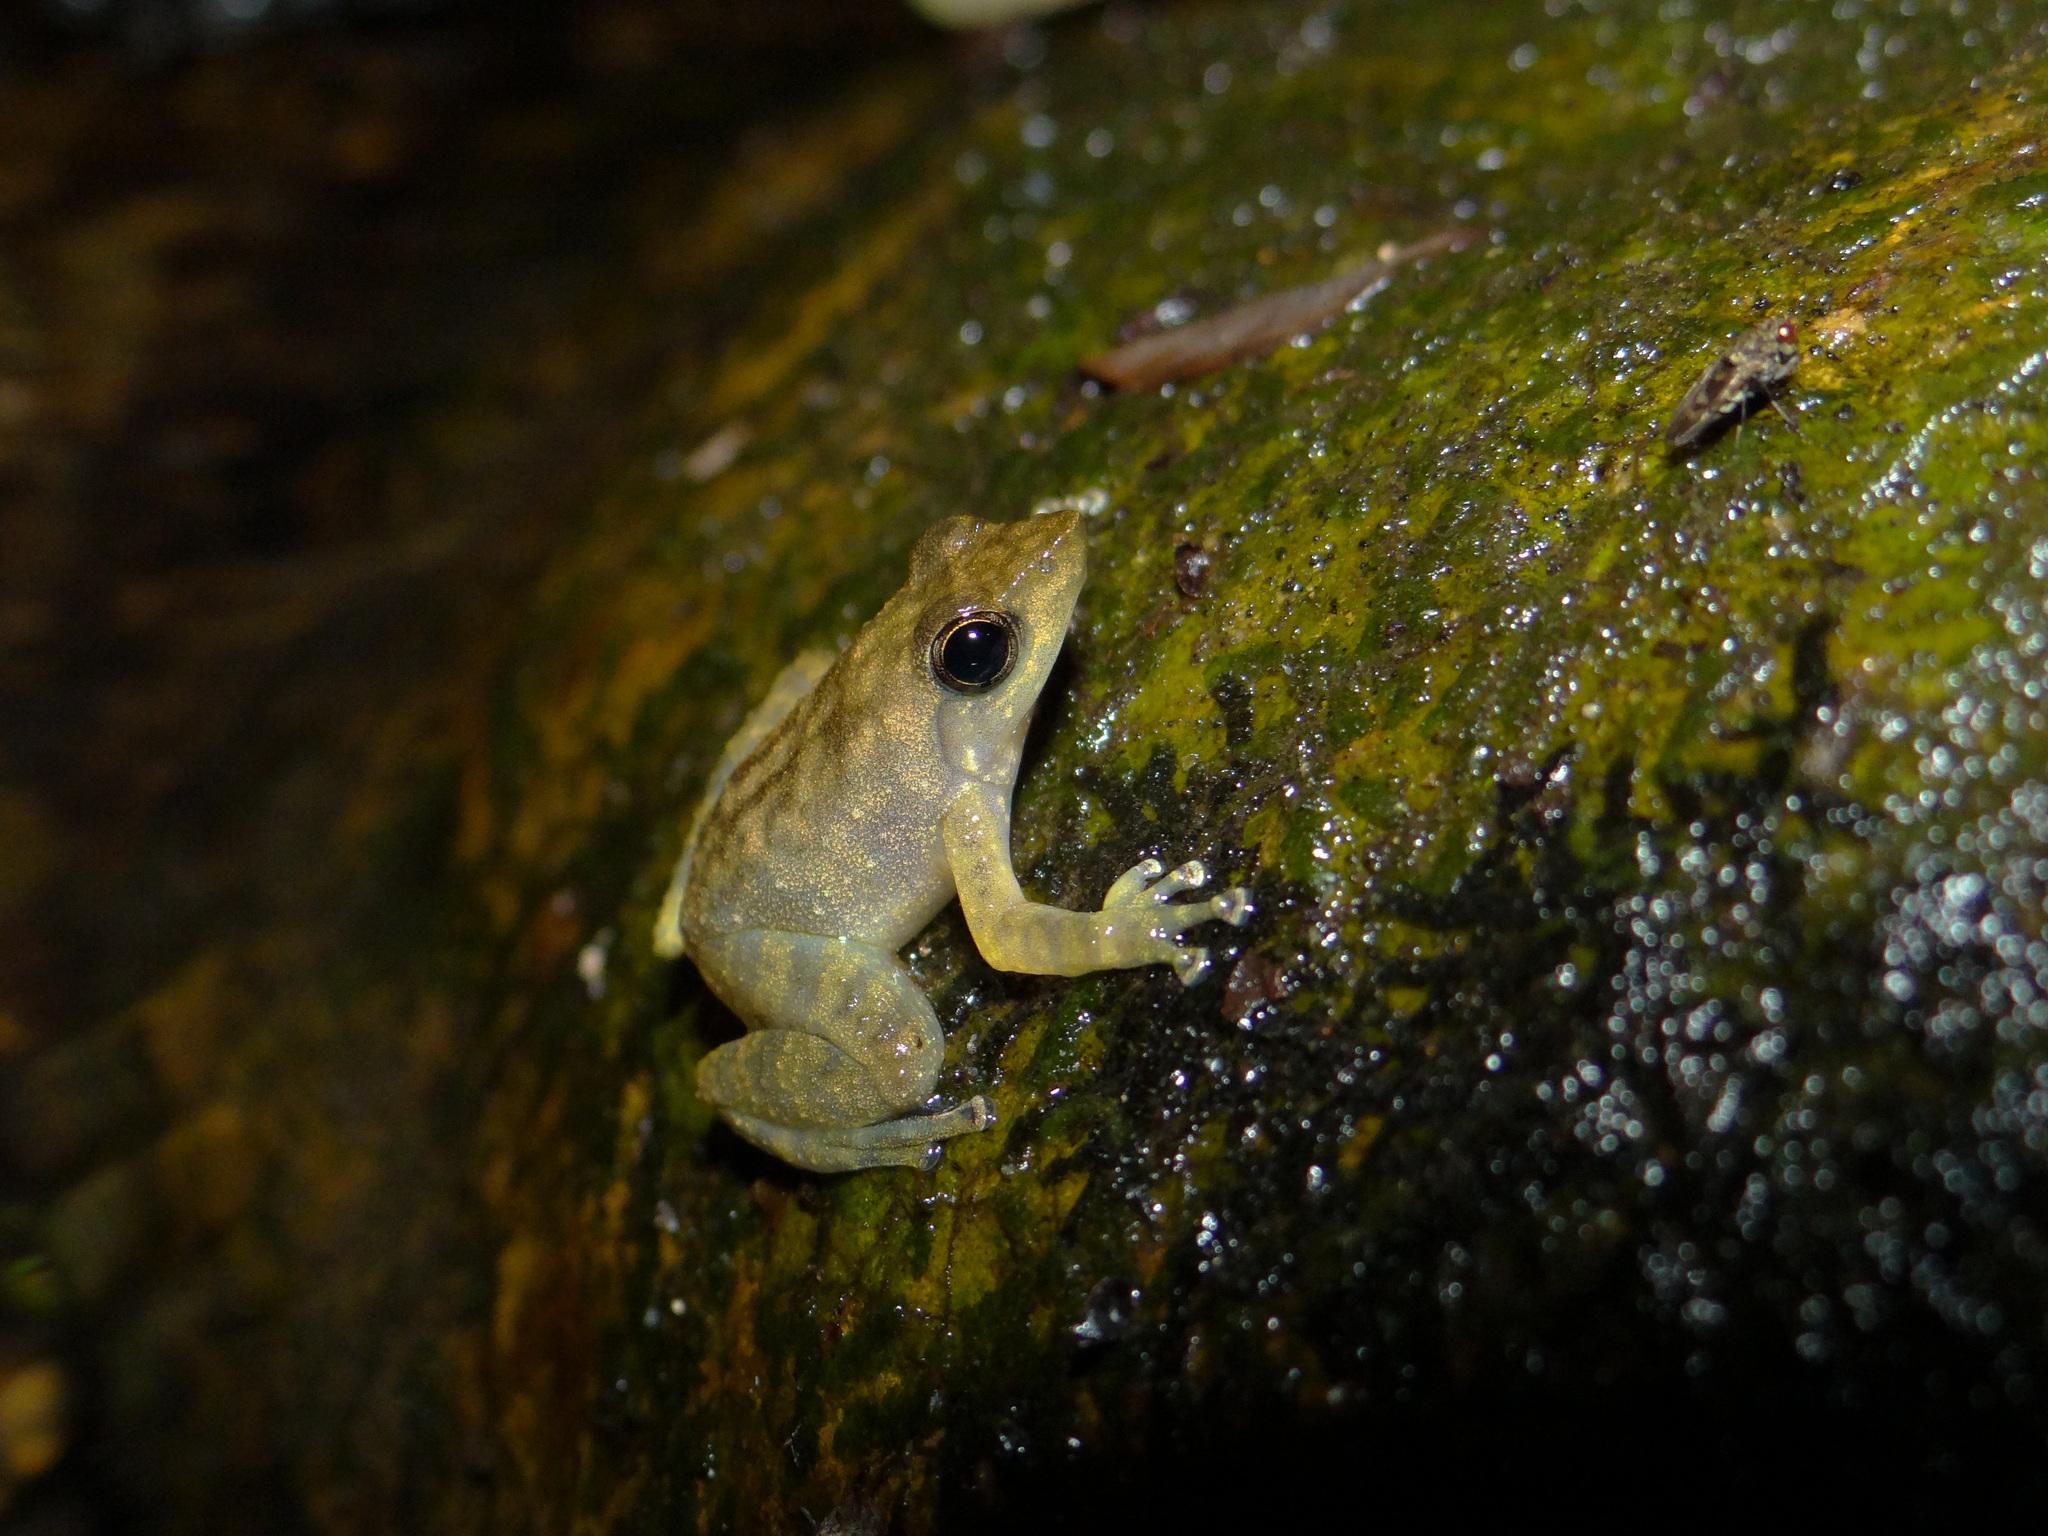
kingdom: Animalia
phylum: Chordata
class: Amphibia
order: Anura
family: Micrixalidae
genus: Micrixalus
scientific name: Micrixalus saxicola
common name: Black torrent frog
